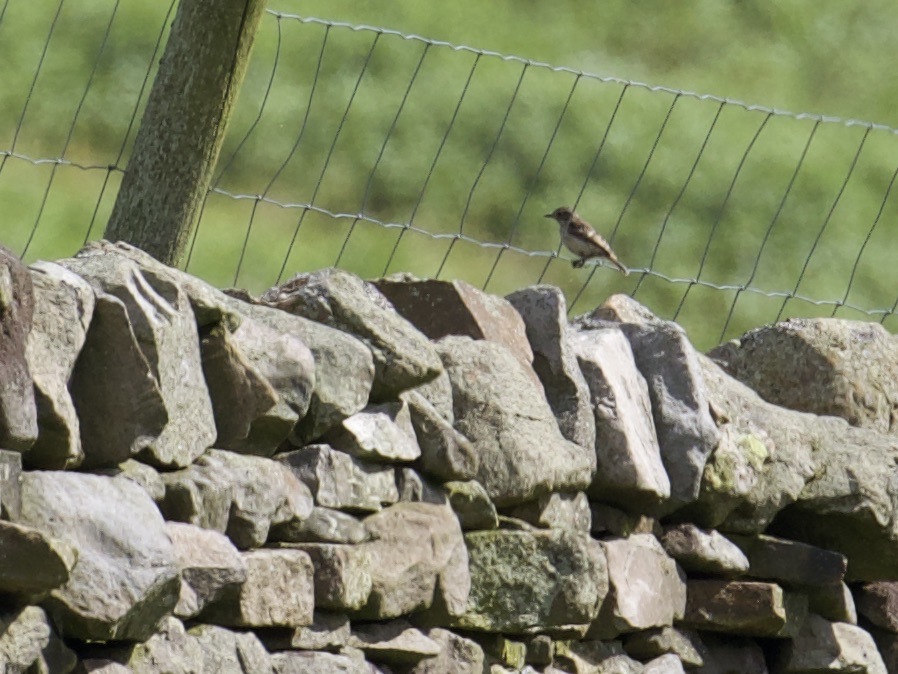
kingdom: Animalia
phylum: Chordata
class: Aves
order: Passeriformes
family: Muscicapidae
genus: Saxicola
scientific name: Saxicola rubetra
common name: Whinchat
